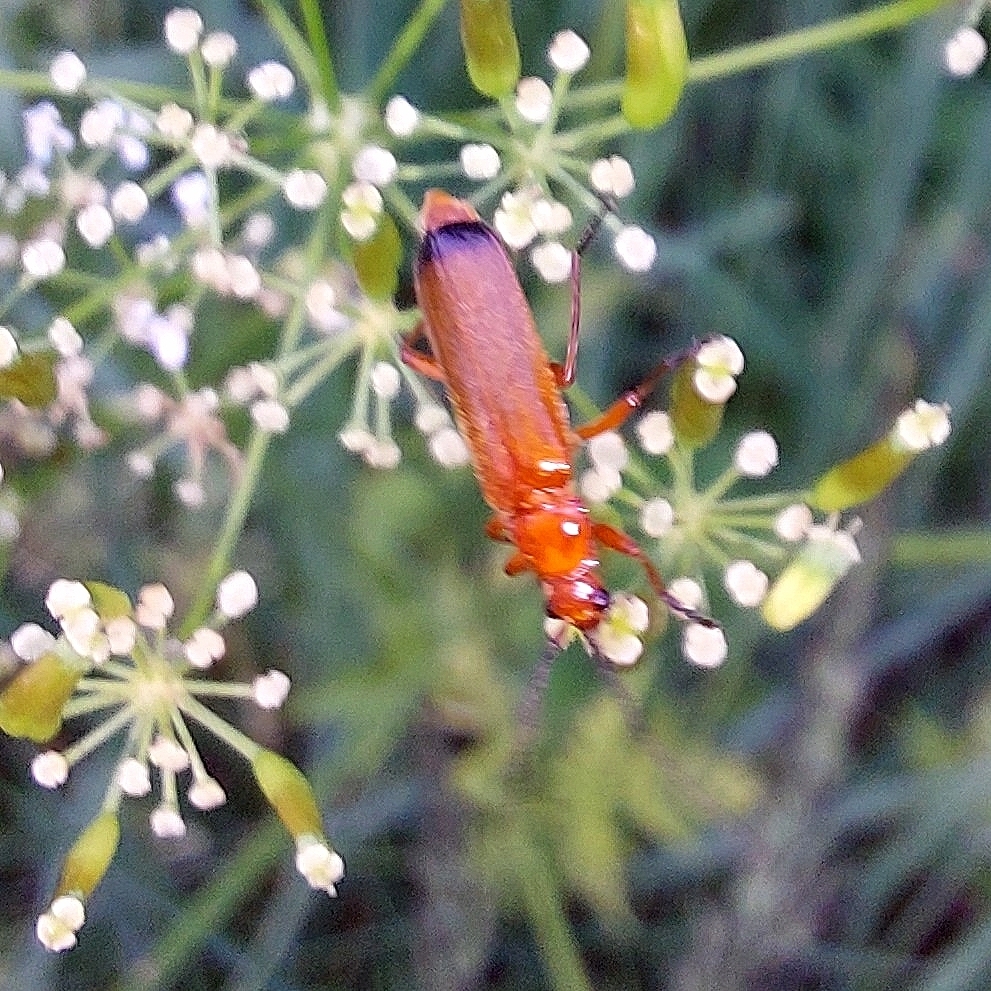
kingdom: Animalia
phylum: Arthropoda
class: Insecta
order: Coleoptera
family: Cantharidae
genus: Rhagonycha
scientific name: Rhagonycha fulva
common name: Common red soldier beetle
